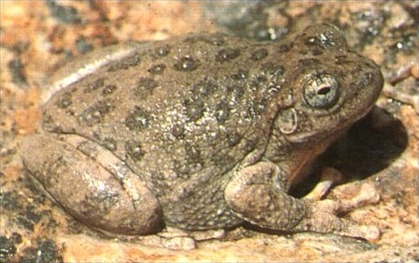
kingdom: Animalia
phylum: Chordata
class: Amphibia
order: Anura
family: Hylidae
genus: Dryophytes
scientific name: Dryophytes arenicolor
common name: Canyon treefrog
